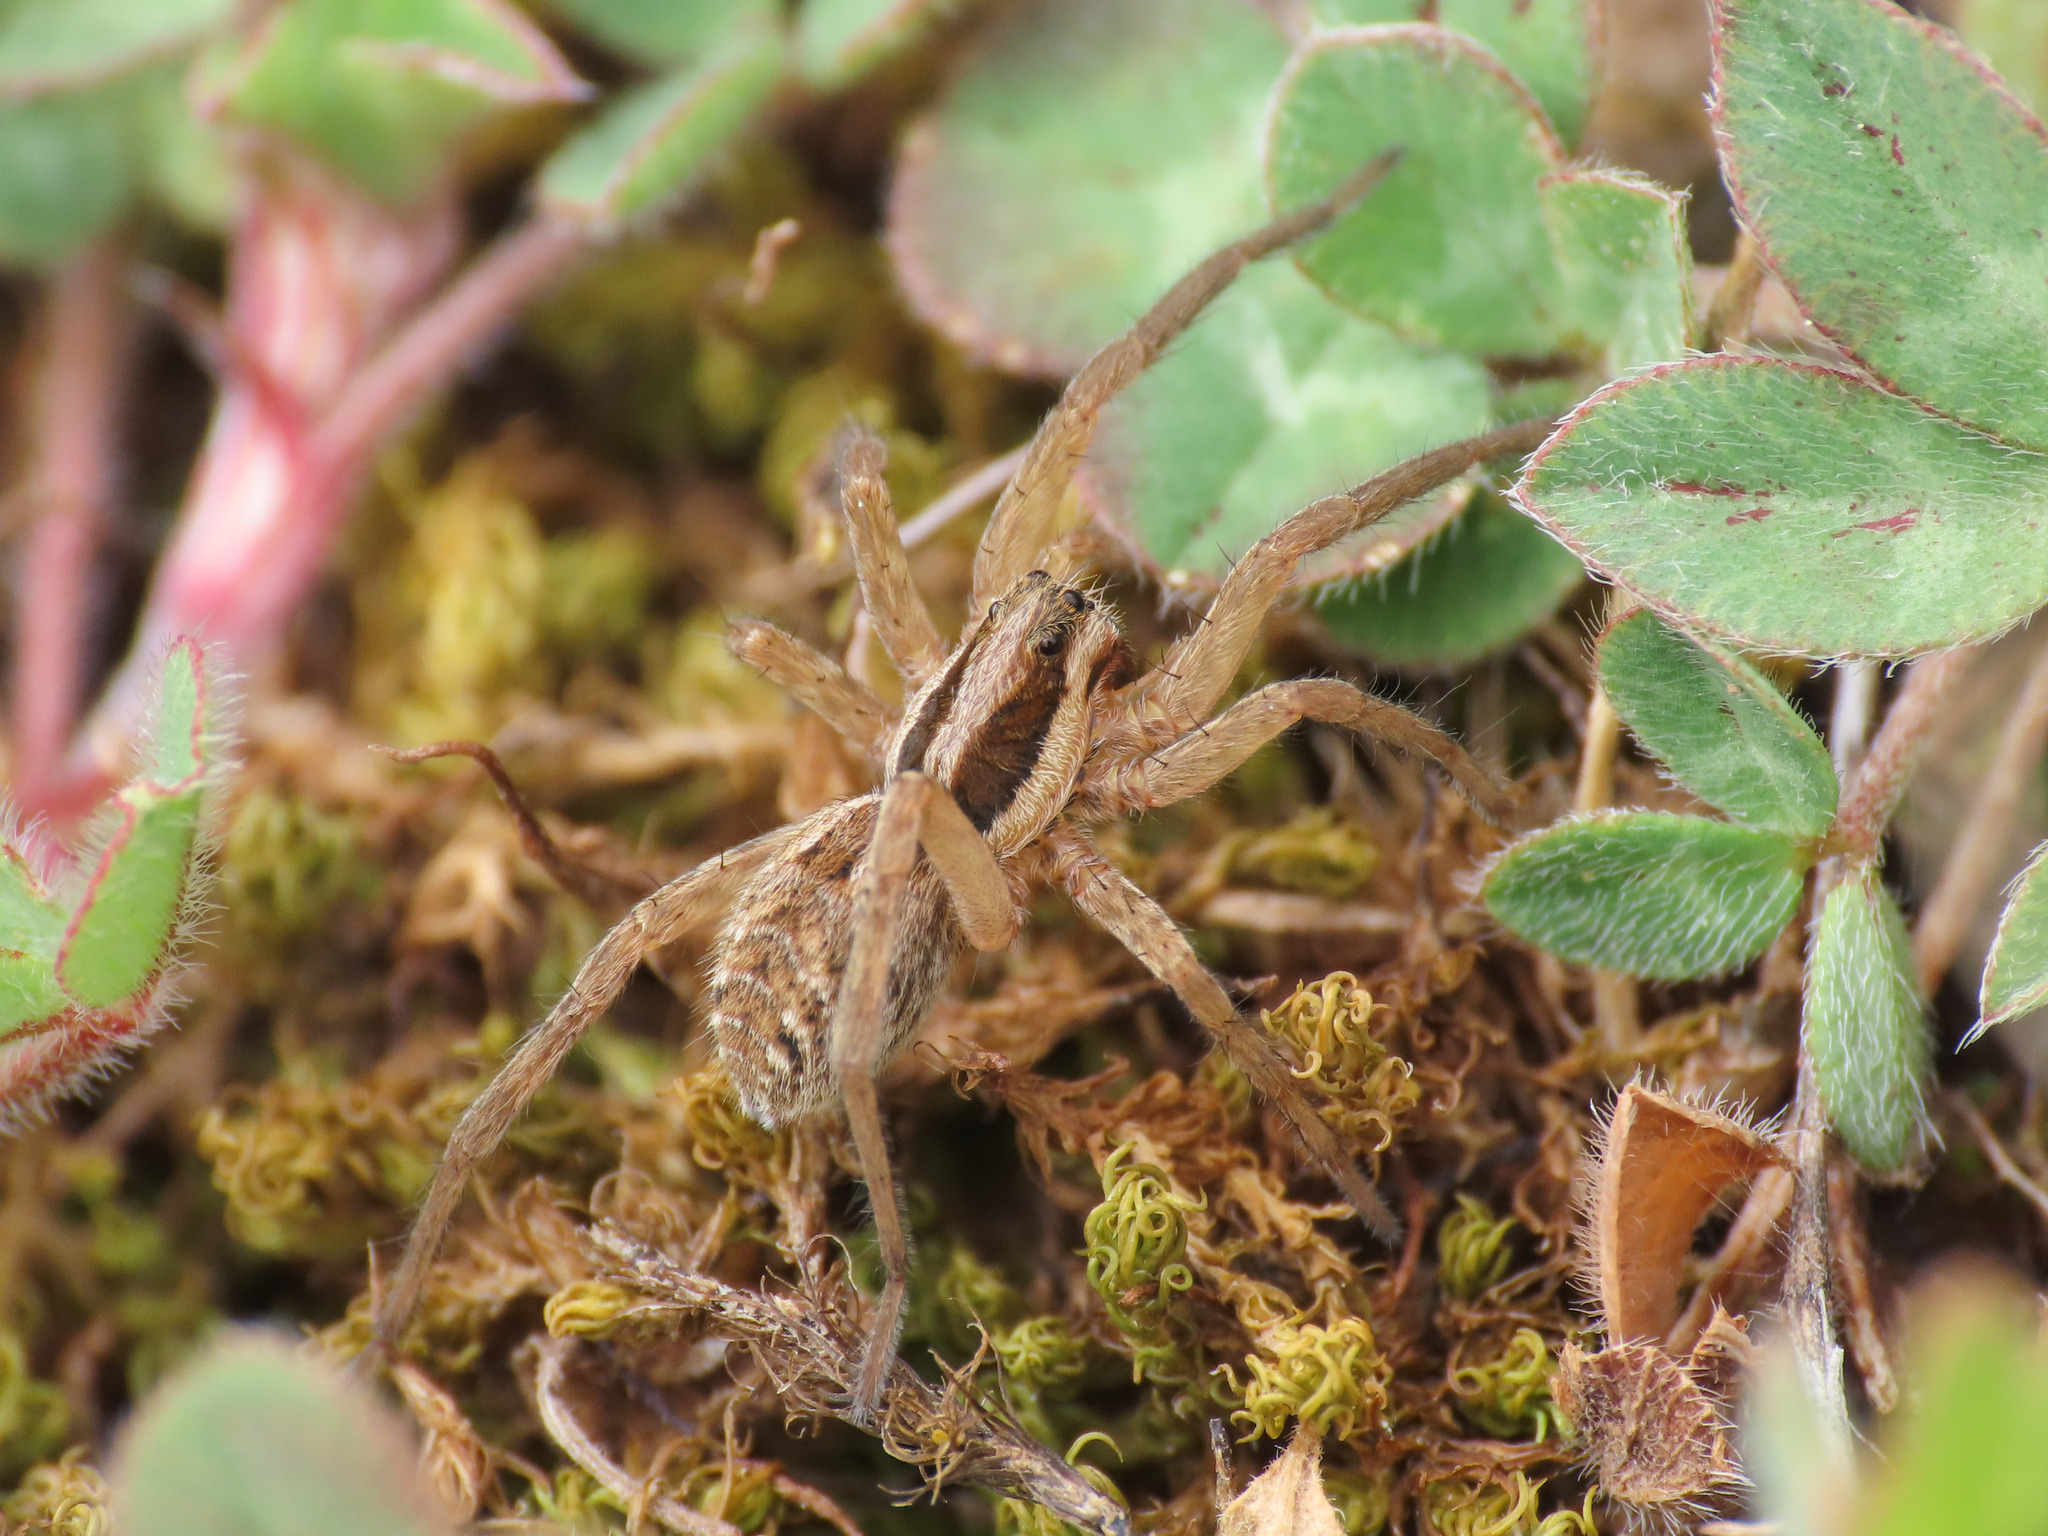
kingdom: Animalia
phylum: Arthropoda
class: Arachnida
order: Araneae
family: Lycosidae
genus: Hogna
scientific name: Hogna radiata
